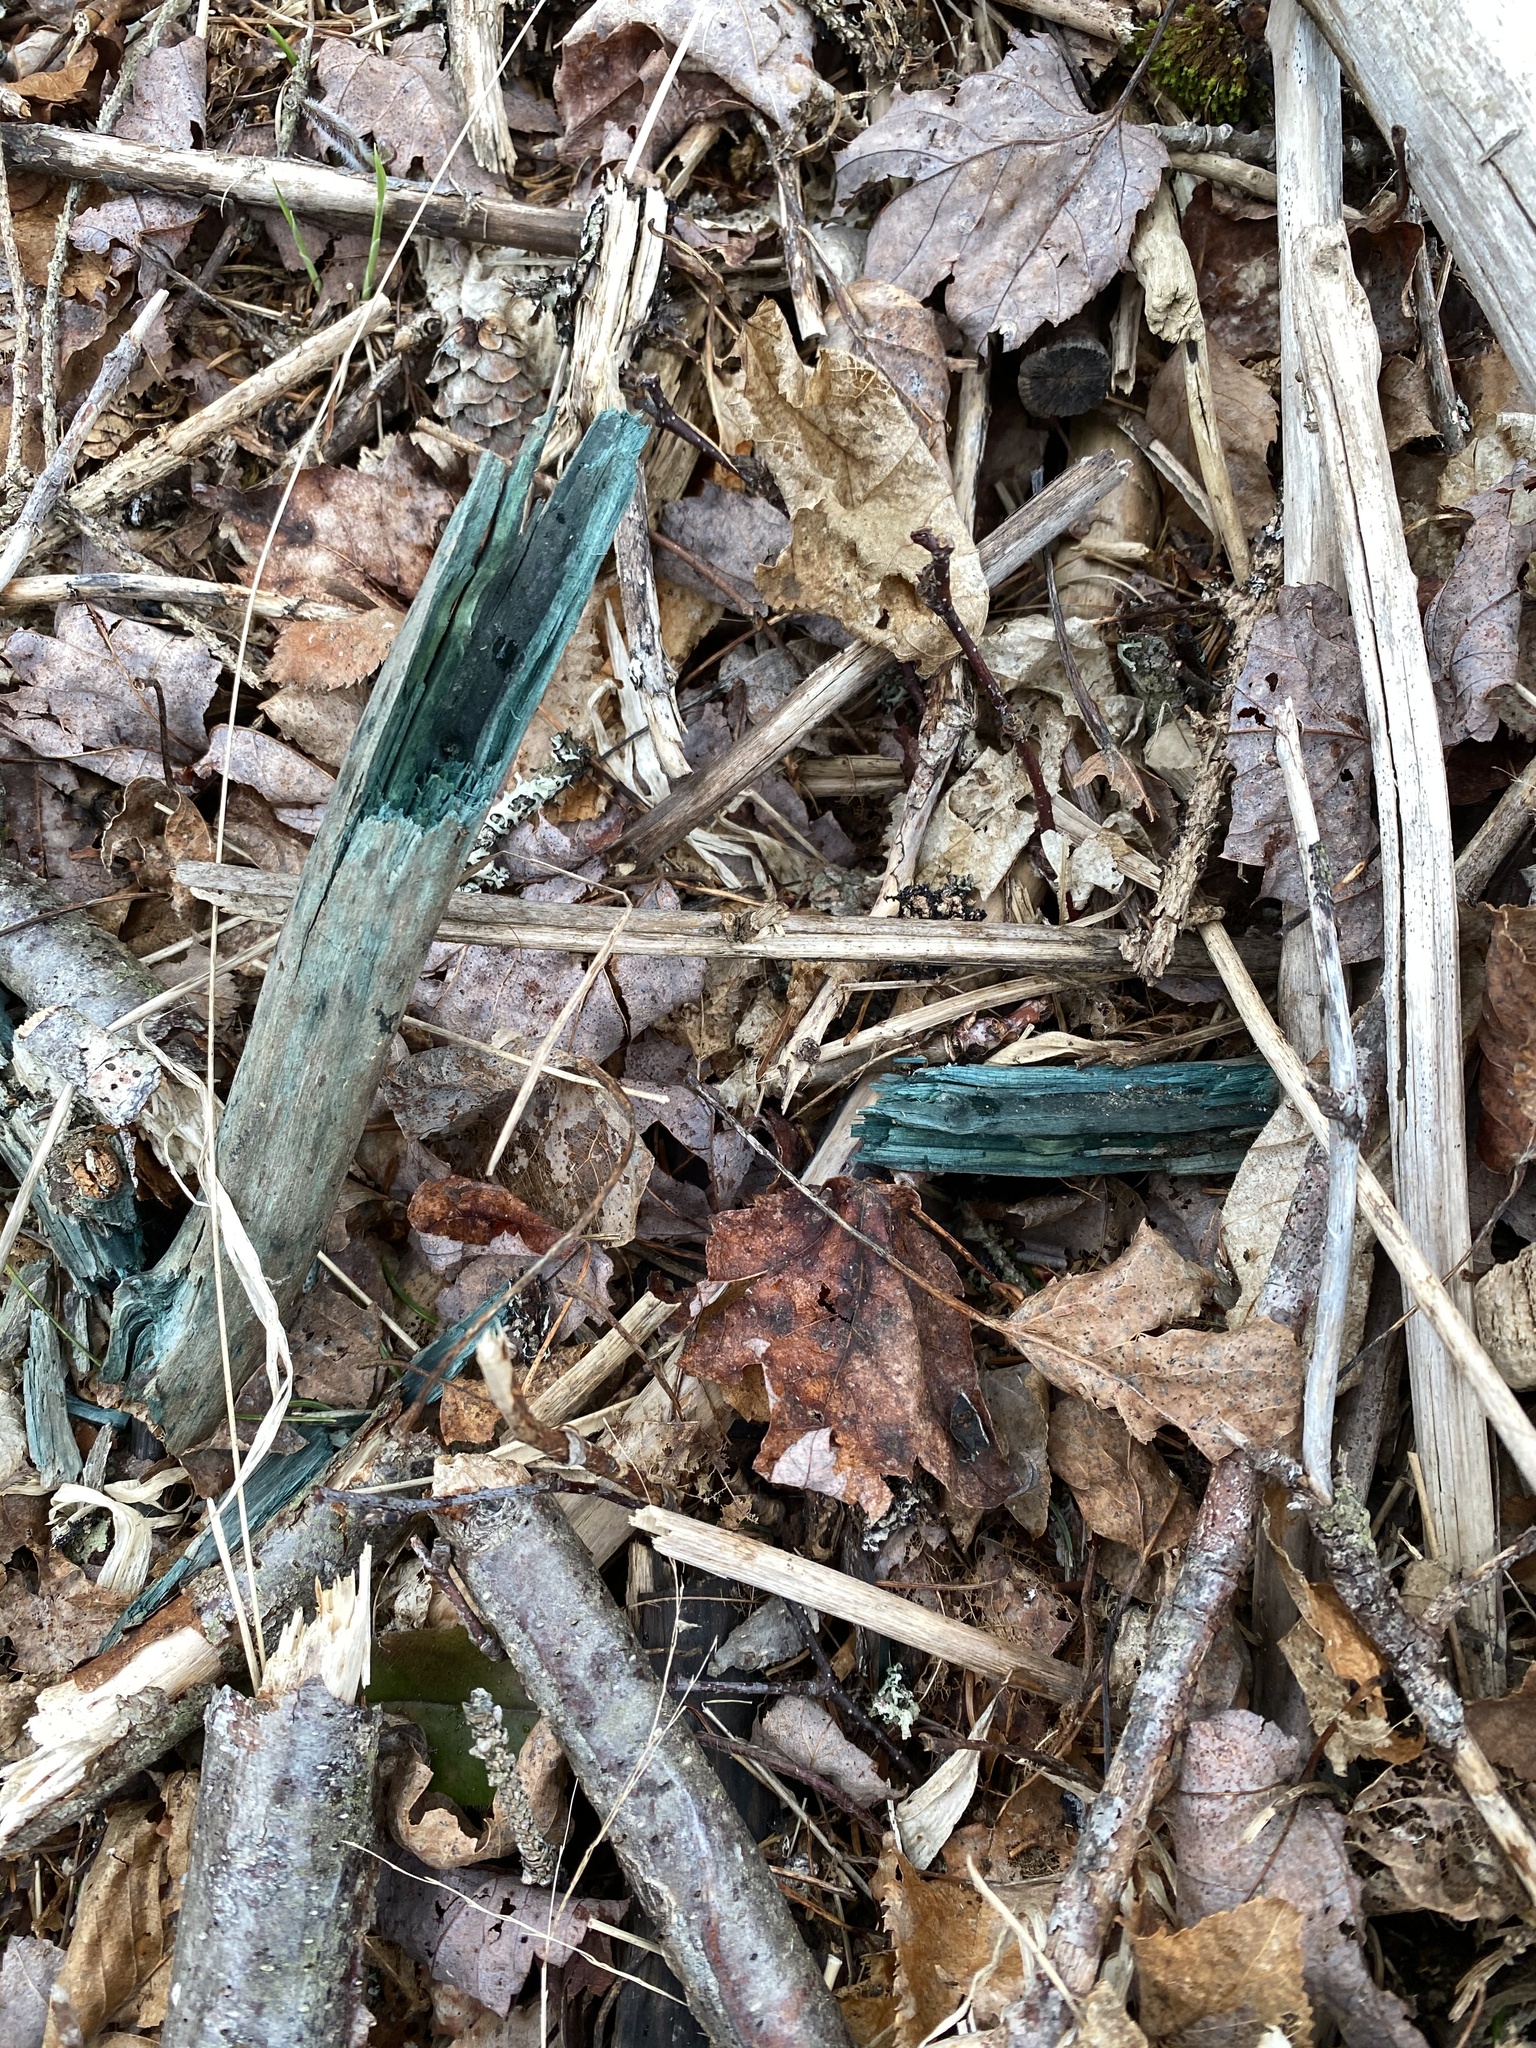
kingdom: Fungi
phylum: Ascomycota
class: Leotiomycetes
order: Helotiales
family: Chlorociboriaceae
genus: Chlorociboria
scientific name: Chlorociboria aeruginascens
